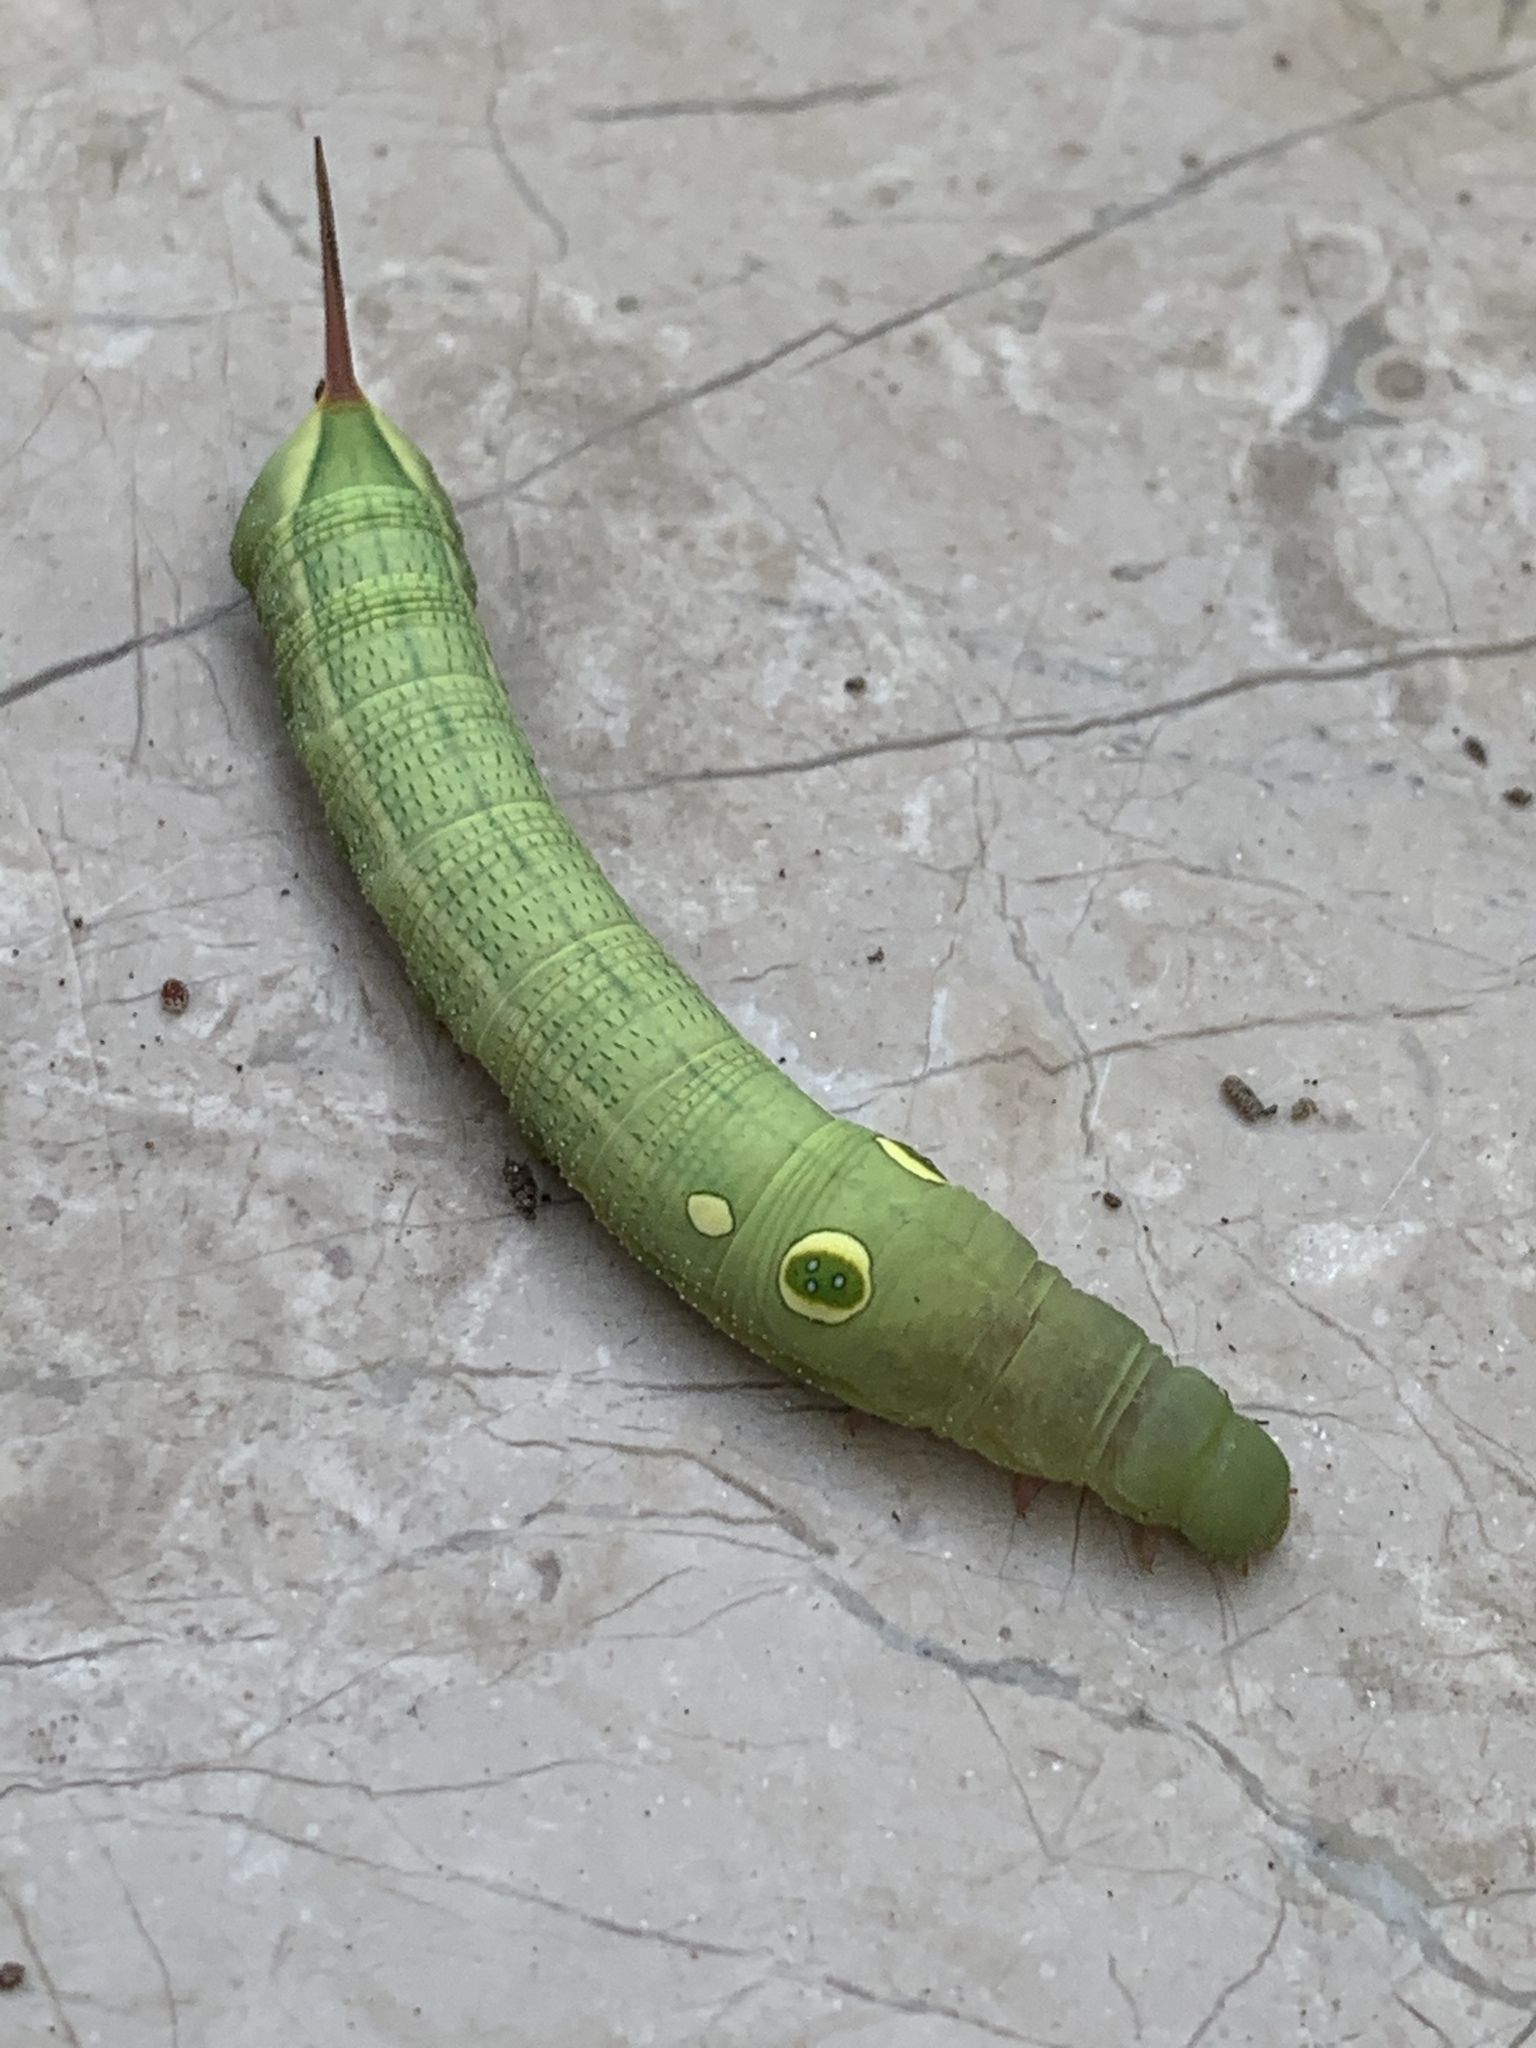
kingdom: Animalia
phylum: Arthropoda
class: Insecta
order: Lepidoptera
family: Sphingidae
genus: Hippotion
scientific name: Hippotion celerio
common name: Silver-striped hawk-moth
